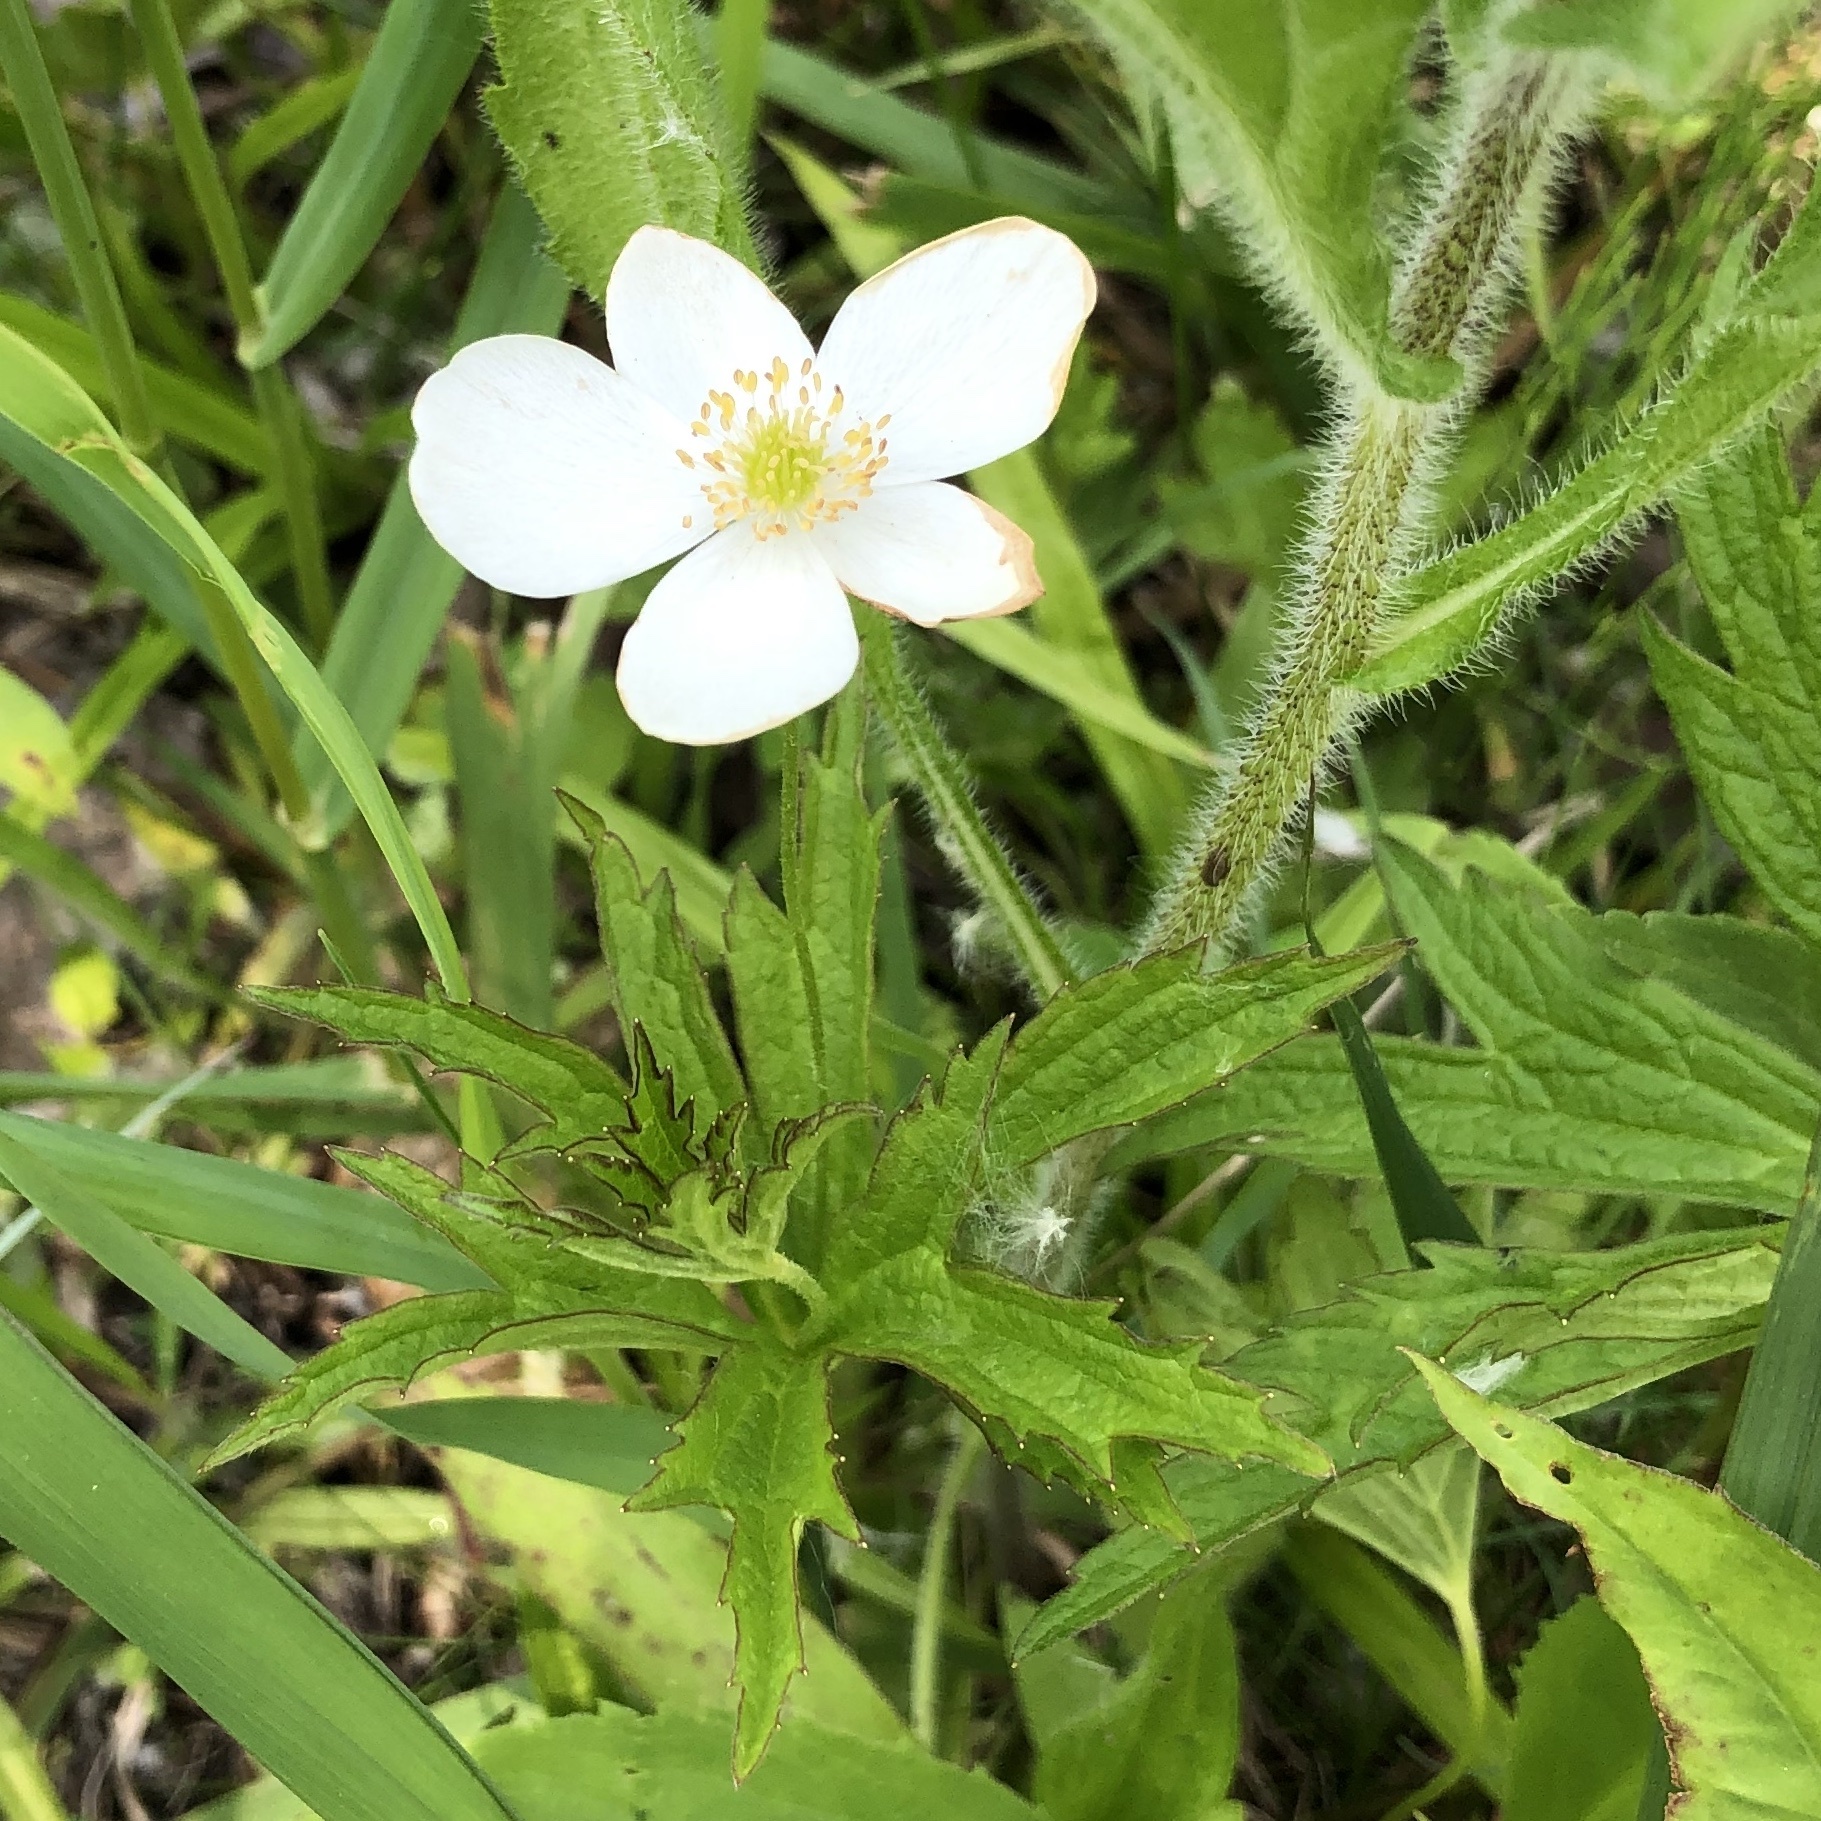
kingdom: Plantae
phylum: Tracheophyta
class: Magnoliopsida
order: Ranunculales
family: Ranunculaceae
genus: Anemonastrum
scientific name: Anemonastrum canadense
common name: Canada anemone
